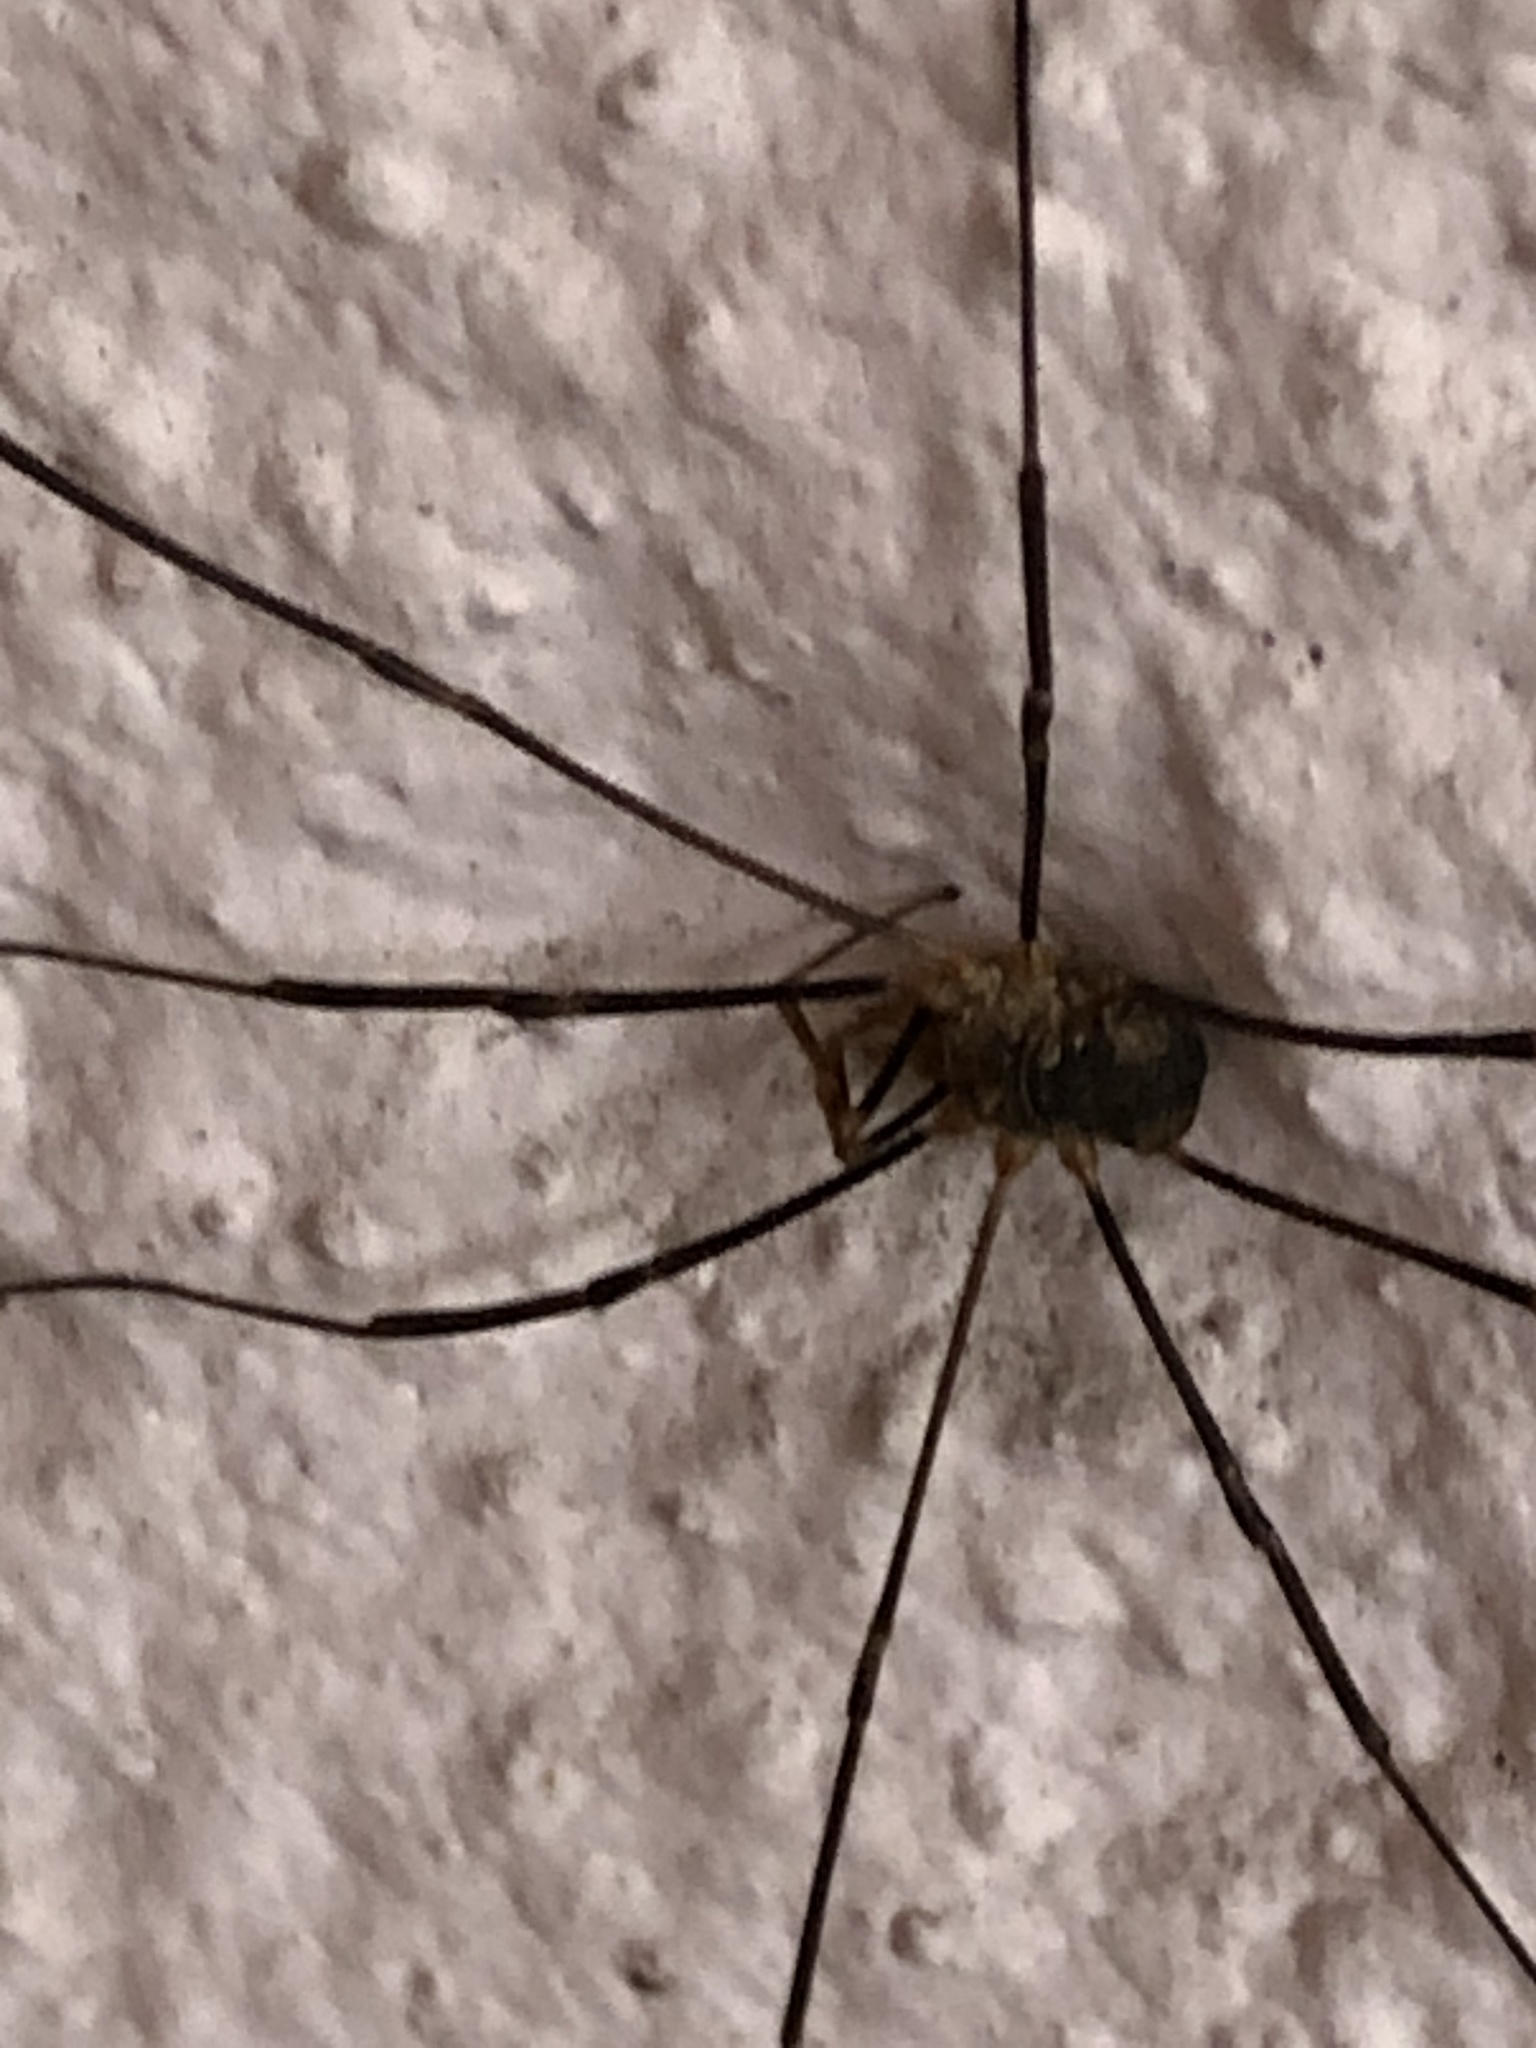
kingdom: Animalia
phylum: Arthropoda
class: Arachnida
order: Opiliones
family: Phalangiidae
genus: Phalangium
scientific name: Phalangium opilio
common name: Daddy longleg
